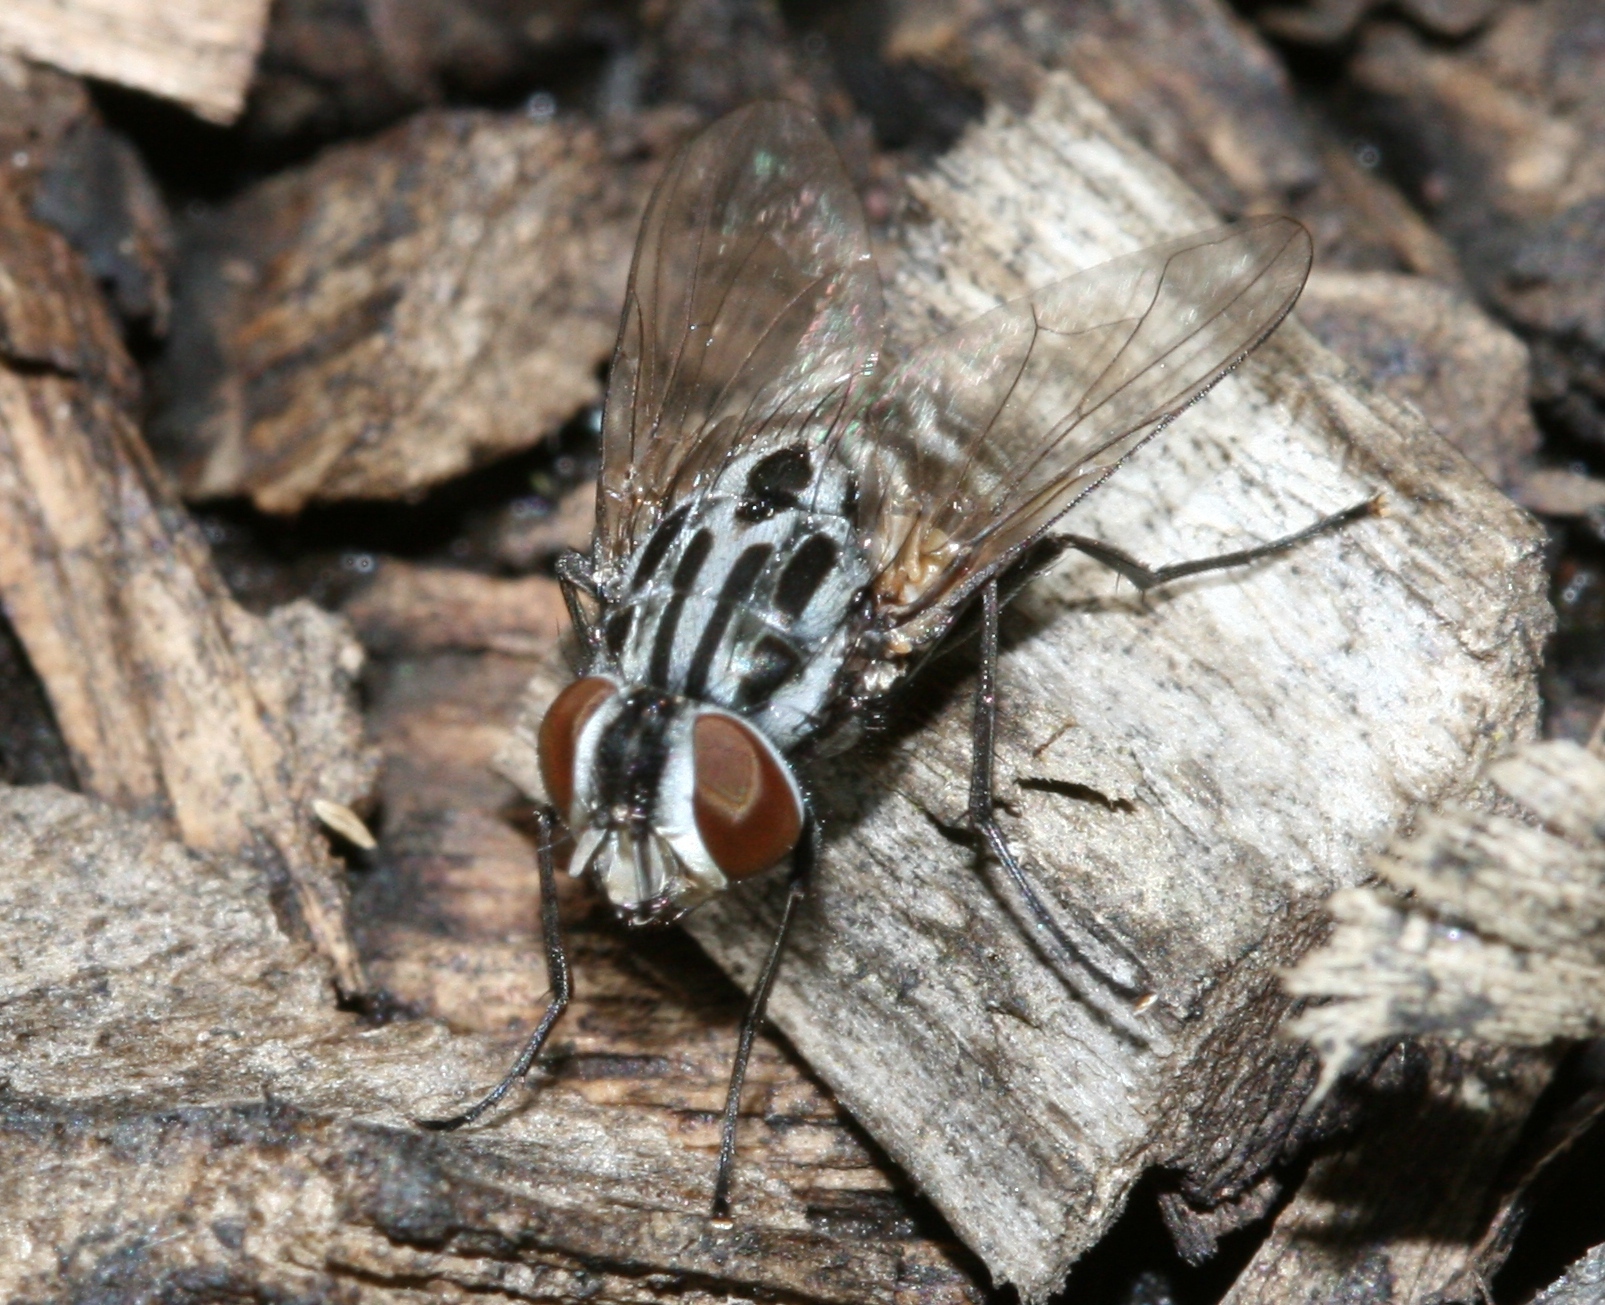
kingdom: Animalia
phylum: Arthropoda
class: Insecta
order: Diptera
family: Muscidae
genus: Graphomya
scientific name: Graphomya maculata
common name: Muscid fly
